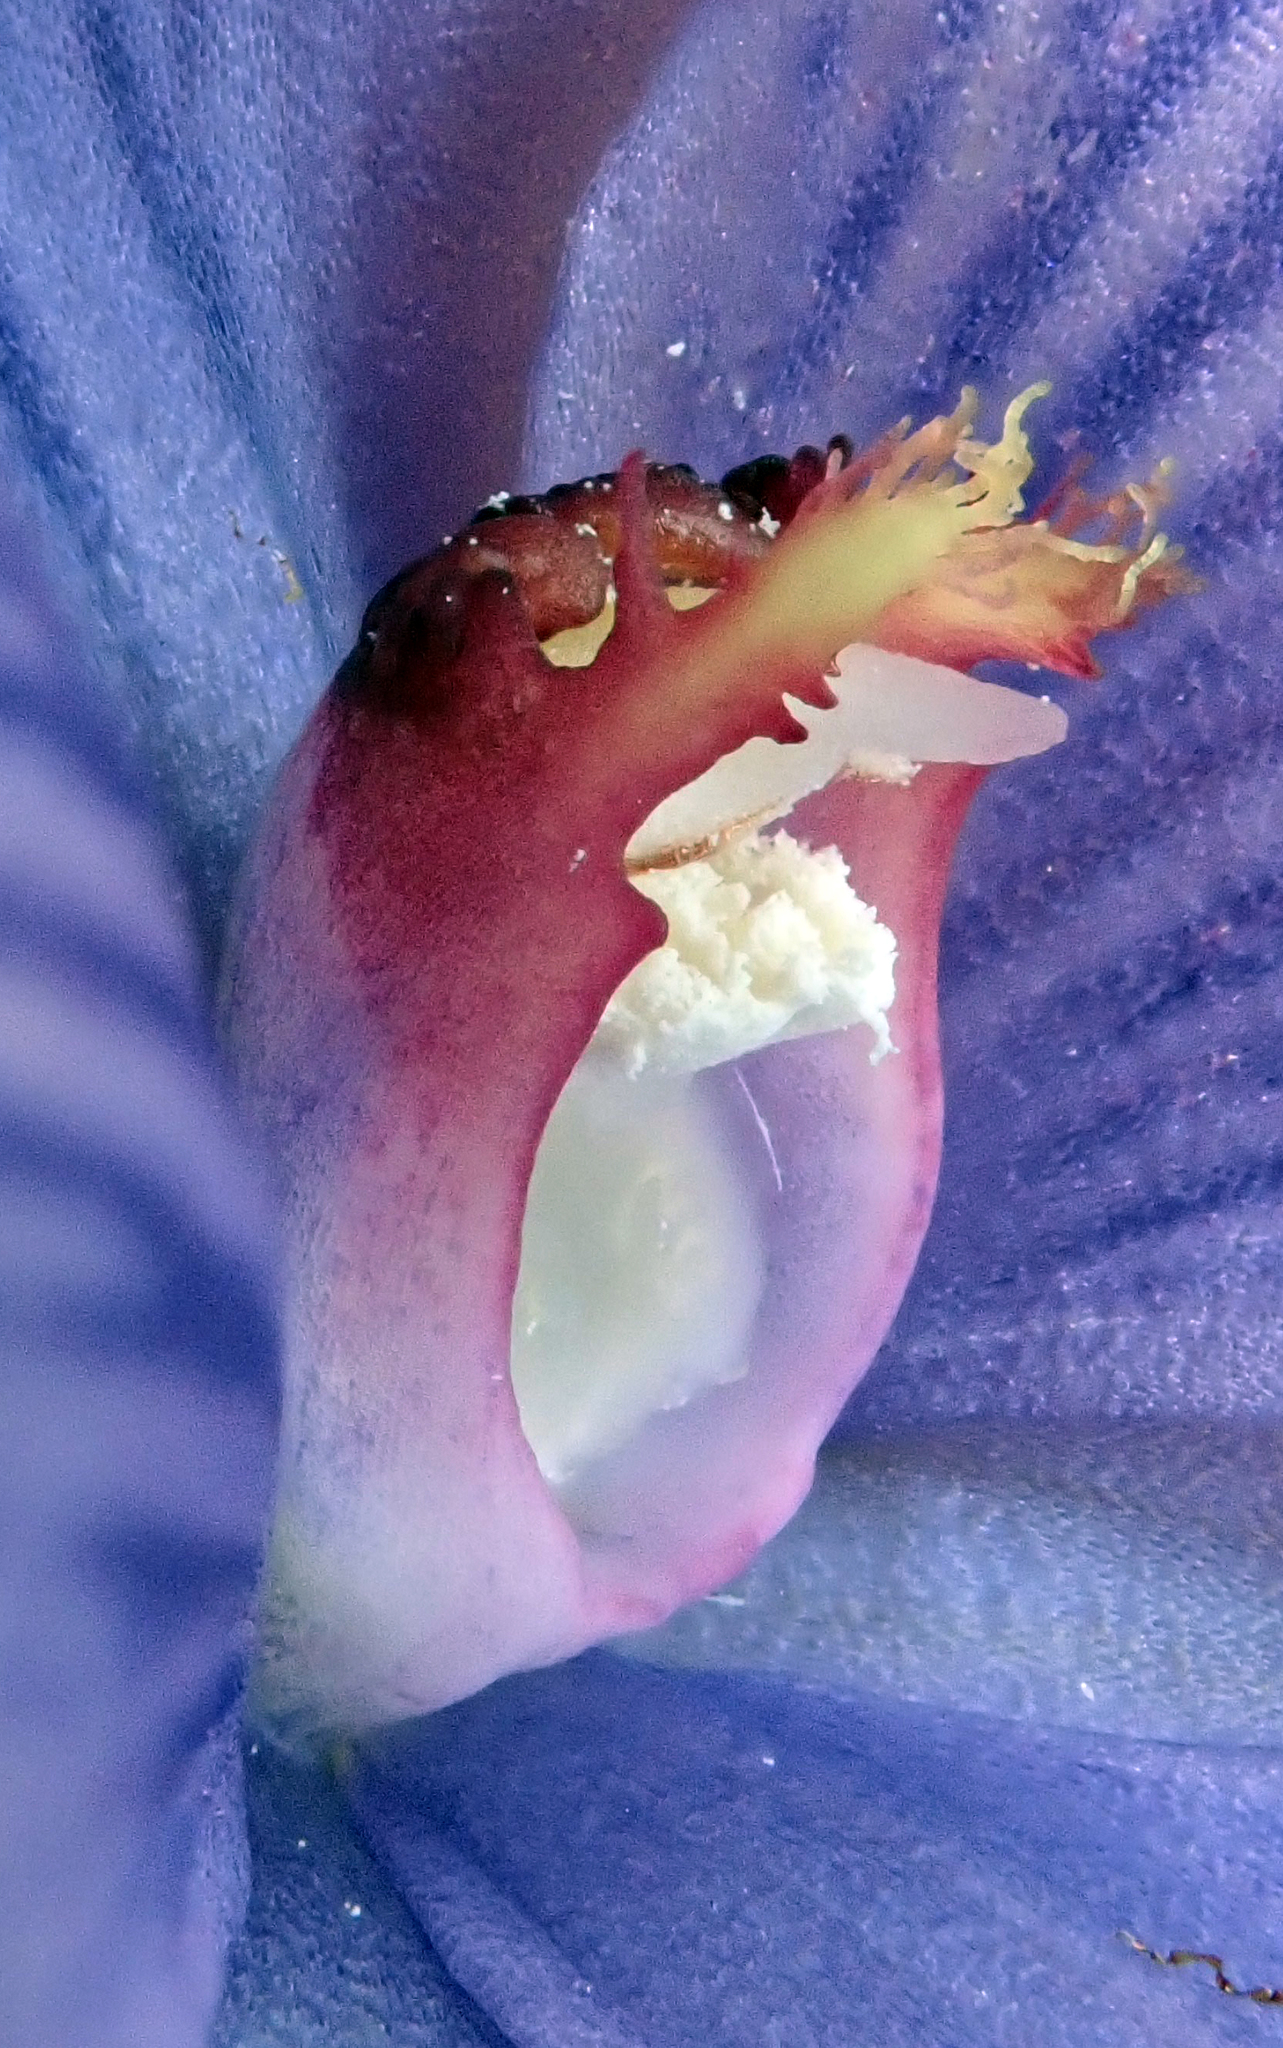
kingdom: Plantae
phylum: Tracheophyta
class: Liliopsida
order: Asparagales
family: Orchidaceae
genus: Thelymitra
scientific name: Thelymitra pulchella
